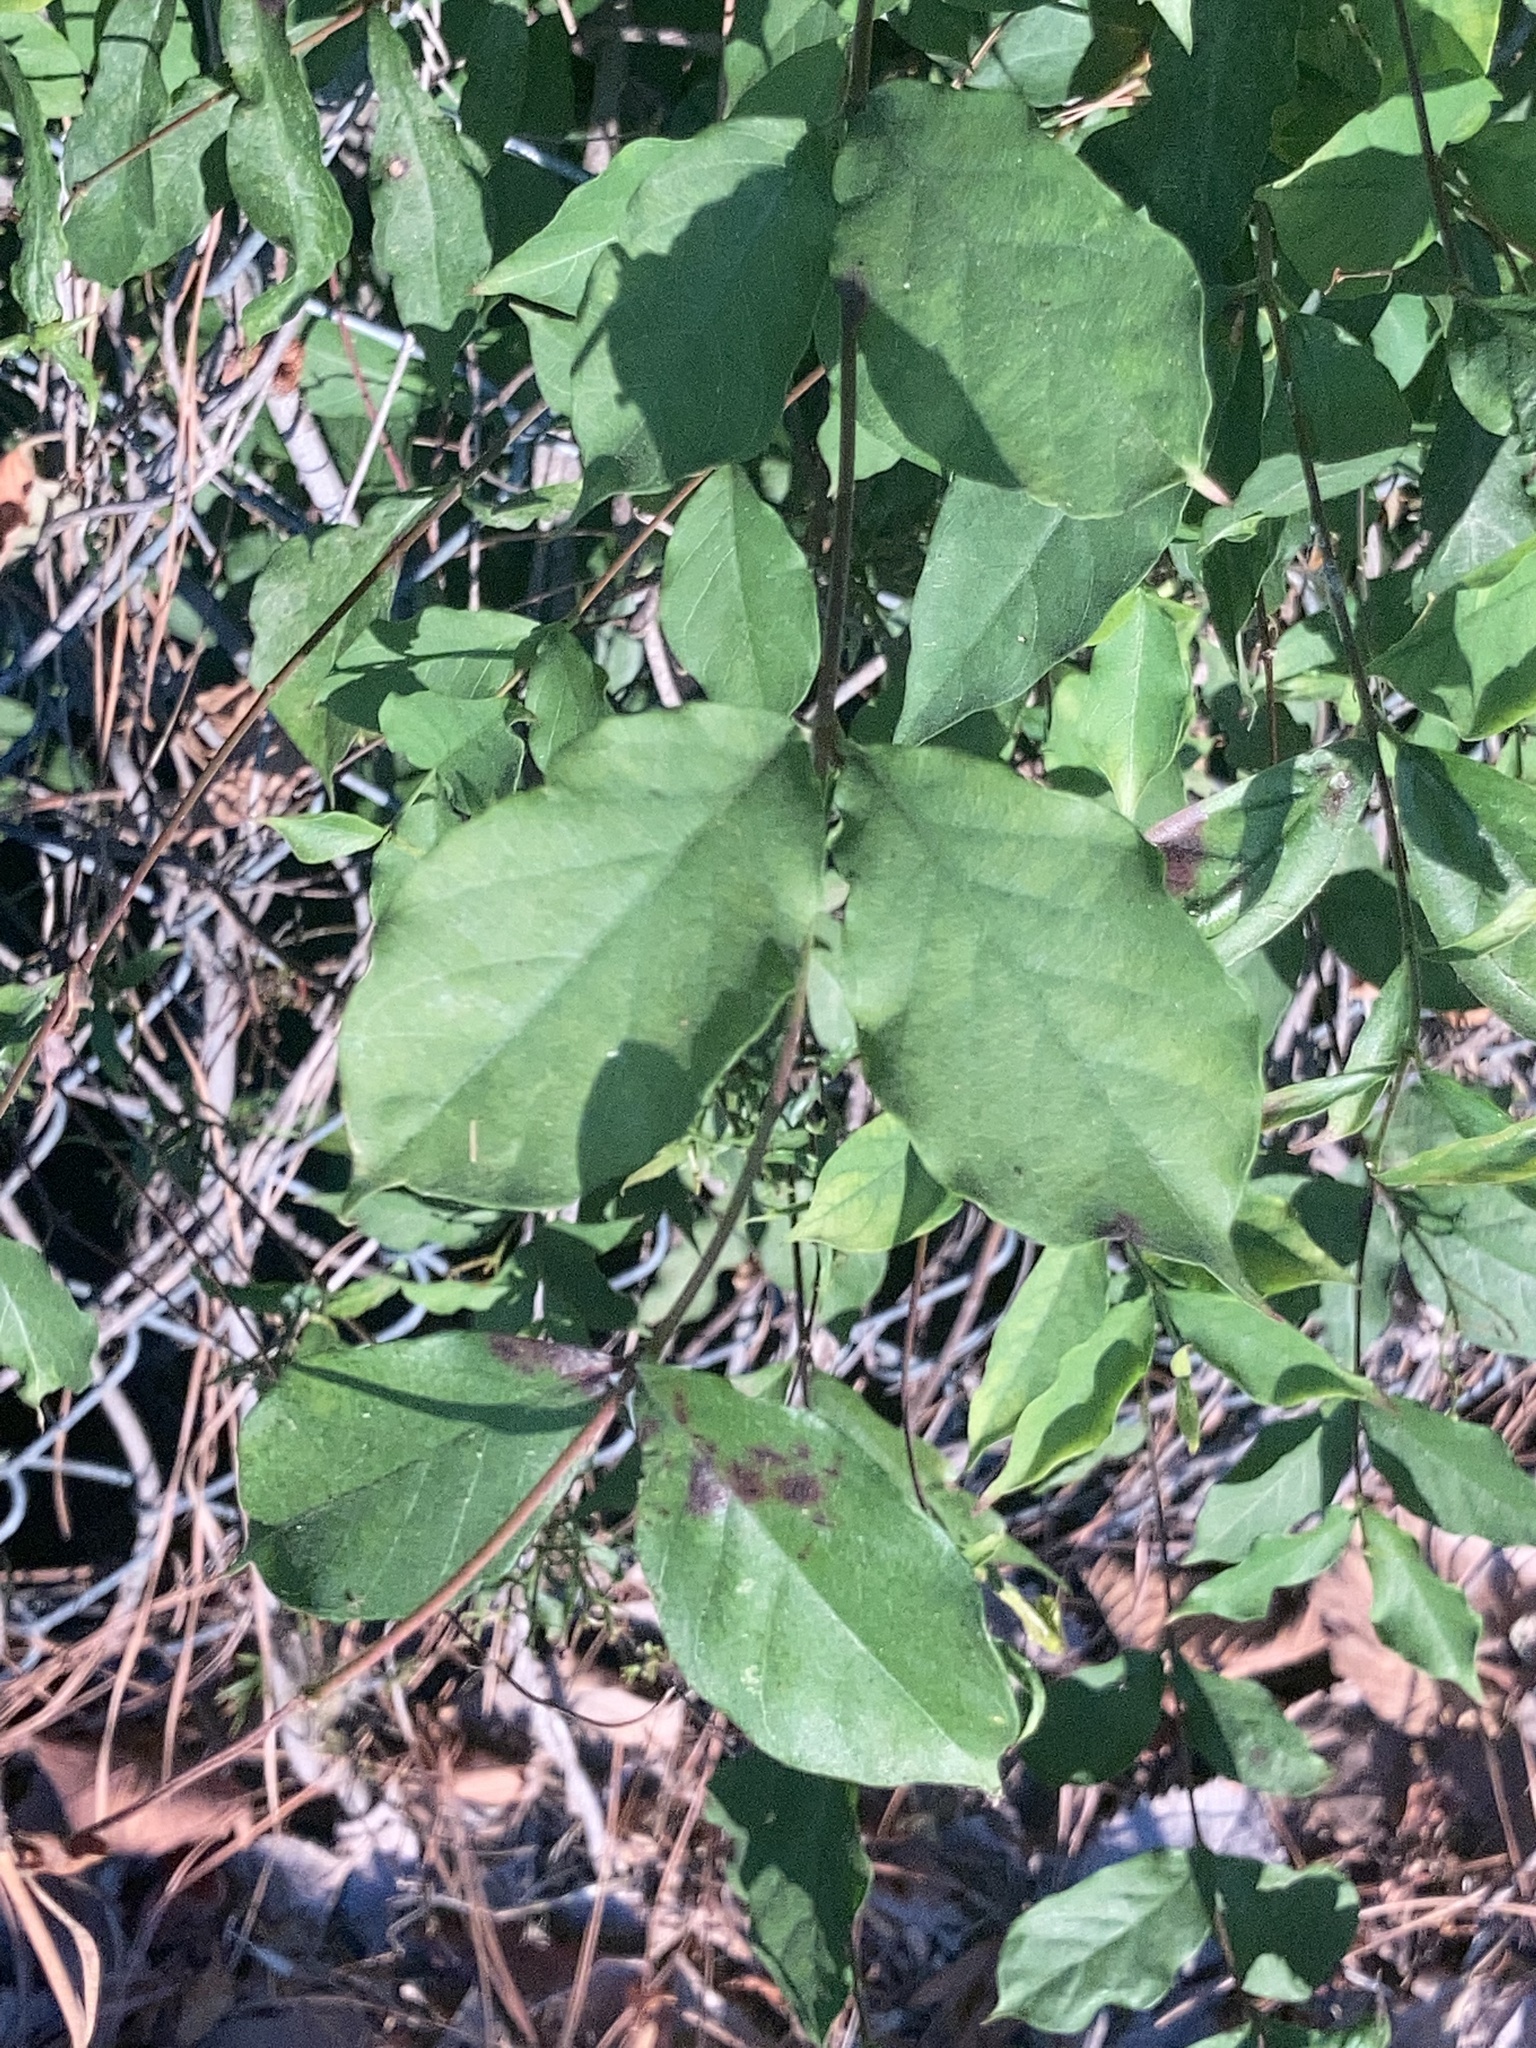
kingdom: Plantae
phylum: Tracheophyta
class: Magnoliopsida
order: Gentianales
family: Apocynaceae
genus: Thyrsanthella
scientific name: Thyrsanthella difformis
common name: Climbing dogbane
